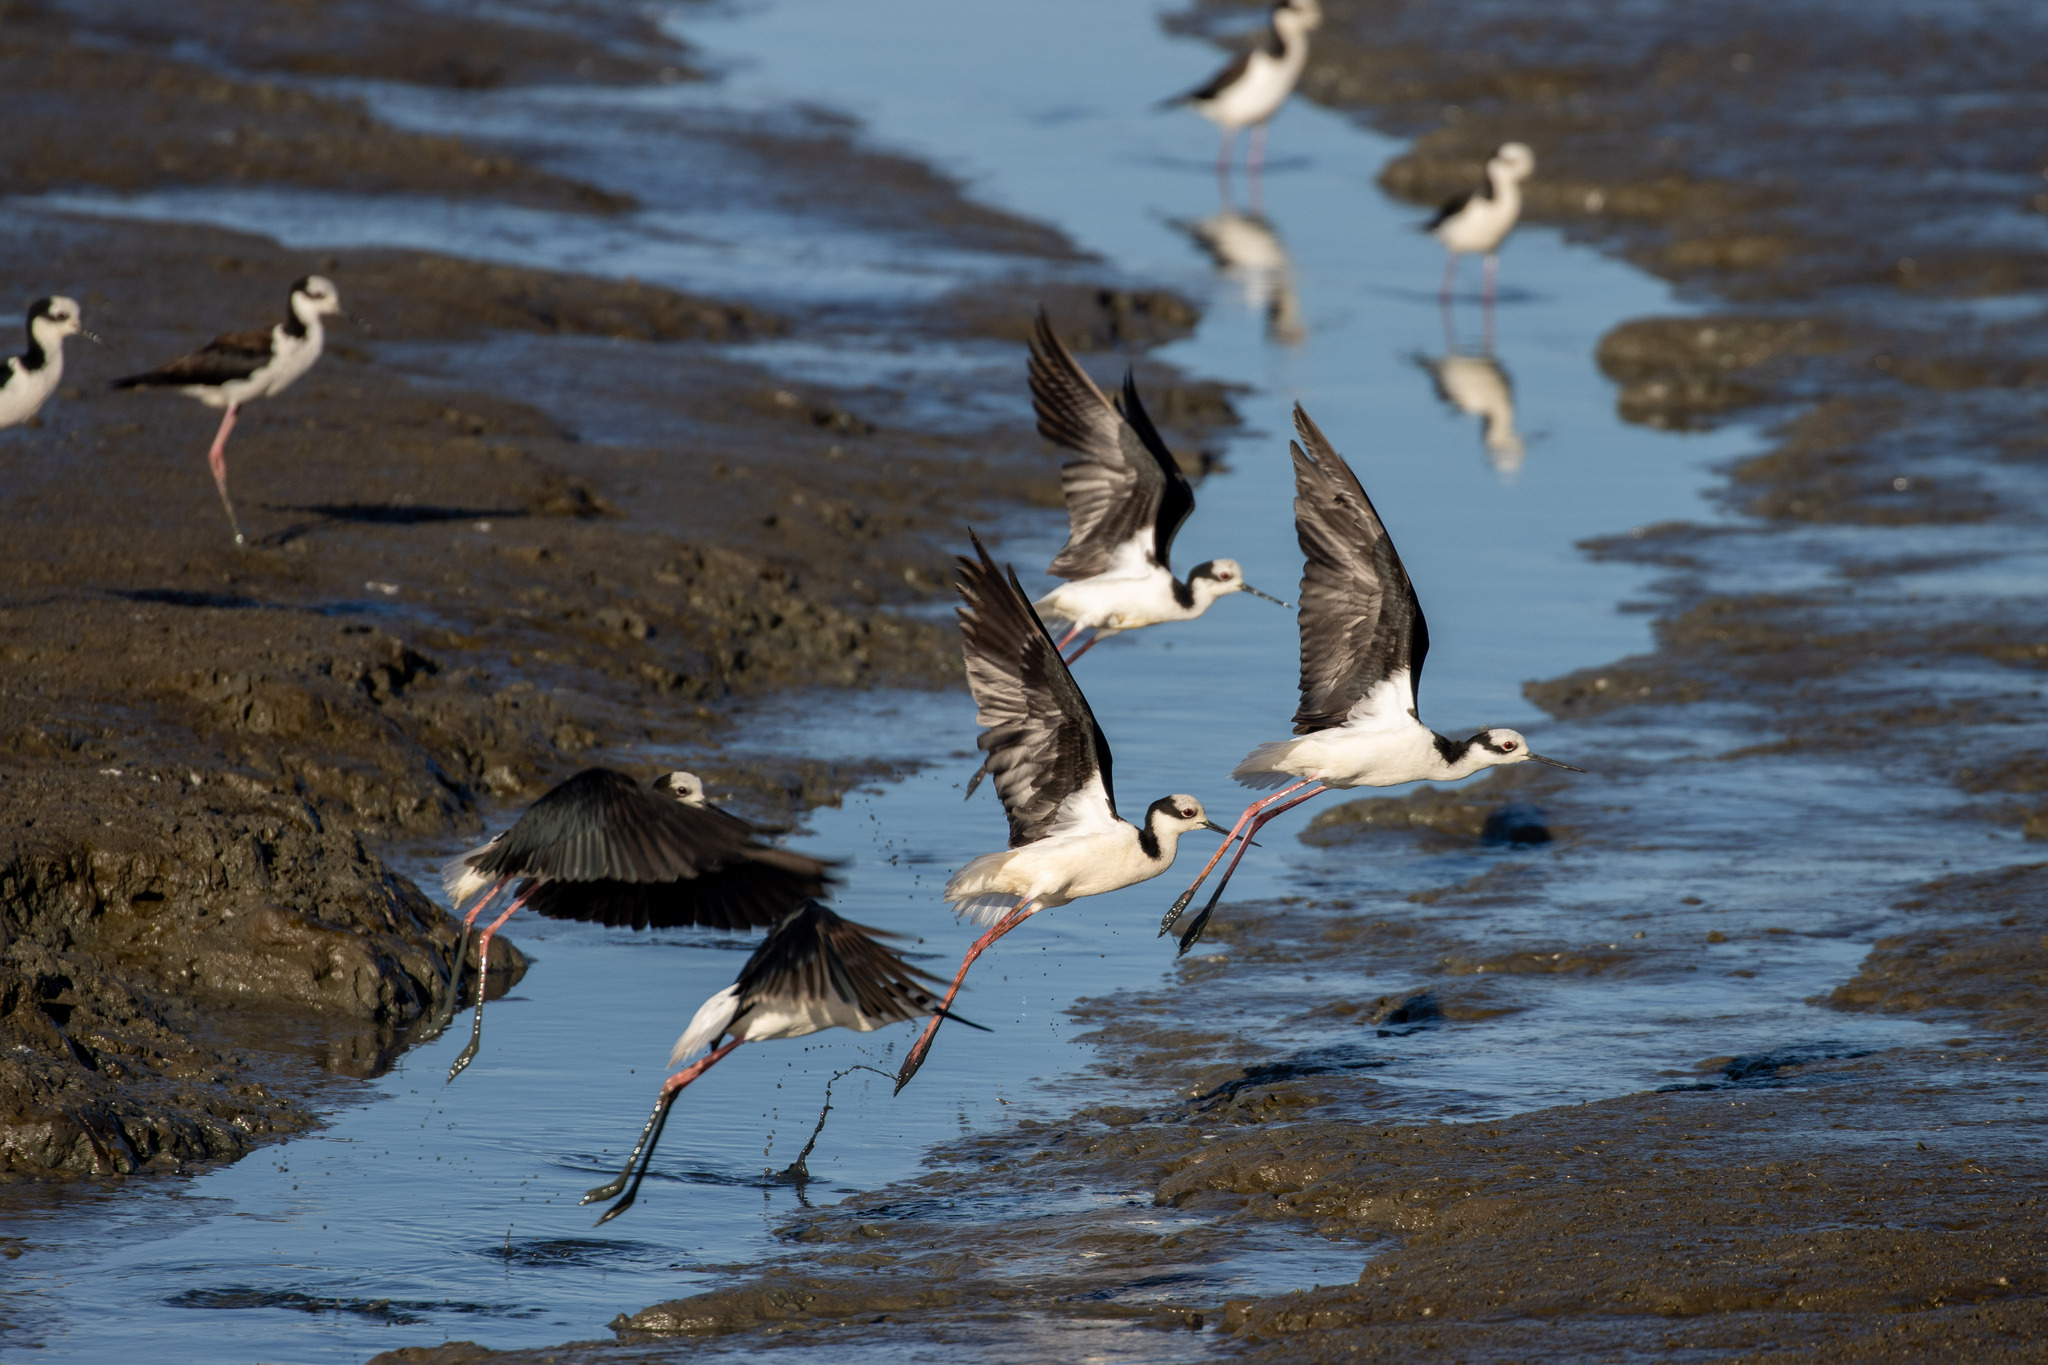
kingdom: Animalia
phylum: Chordata
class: Aves
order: Charadriiformes
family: Recurvirostridae
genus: Himantopus
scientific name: Himantopus mexicanus
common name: Black-necked stilt
